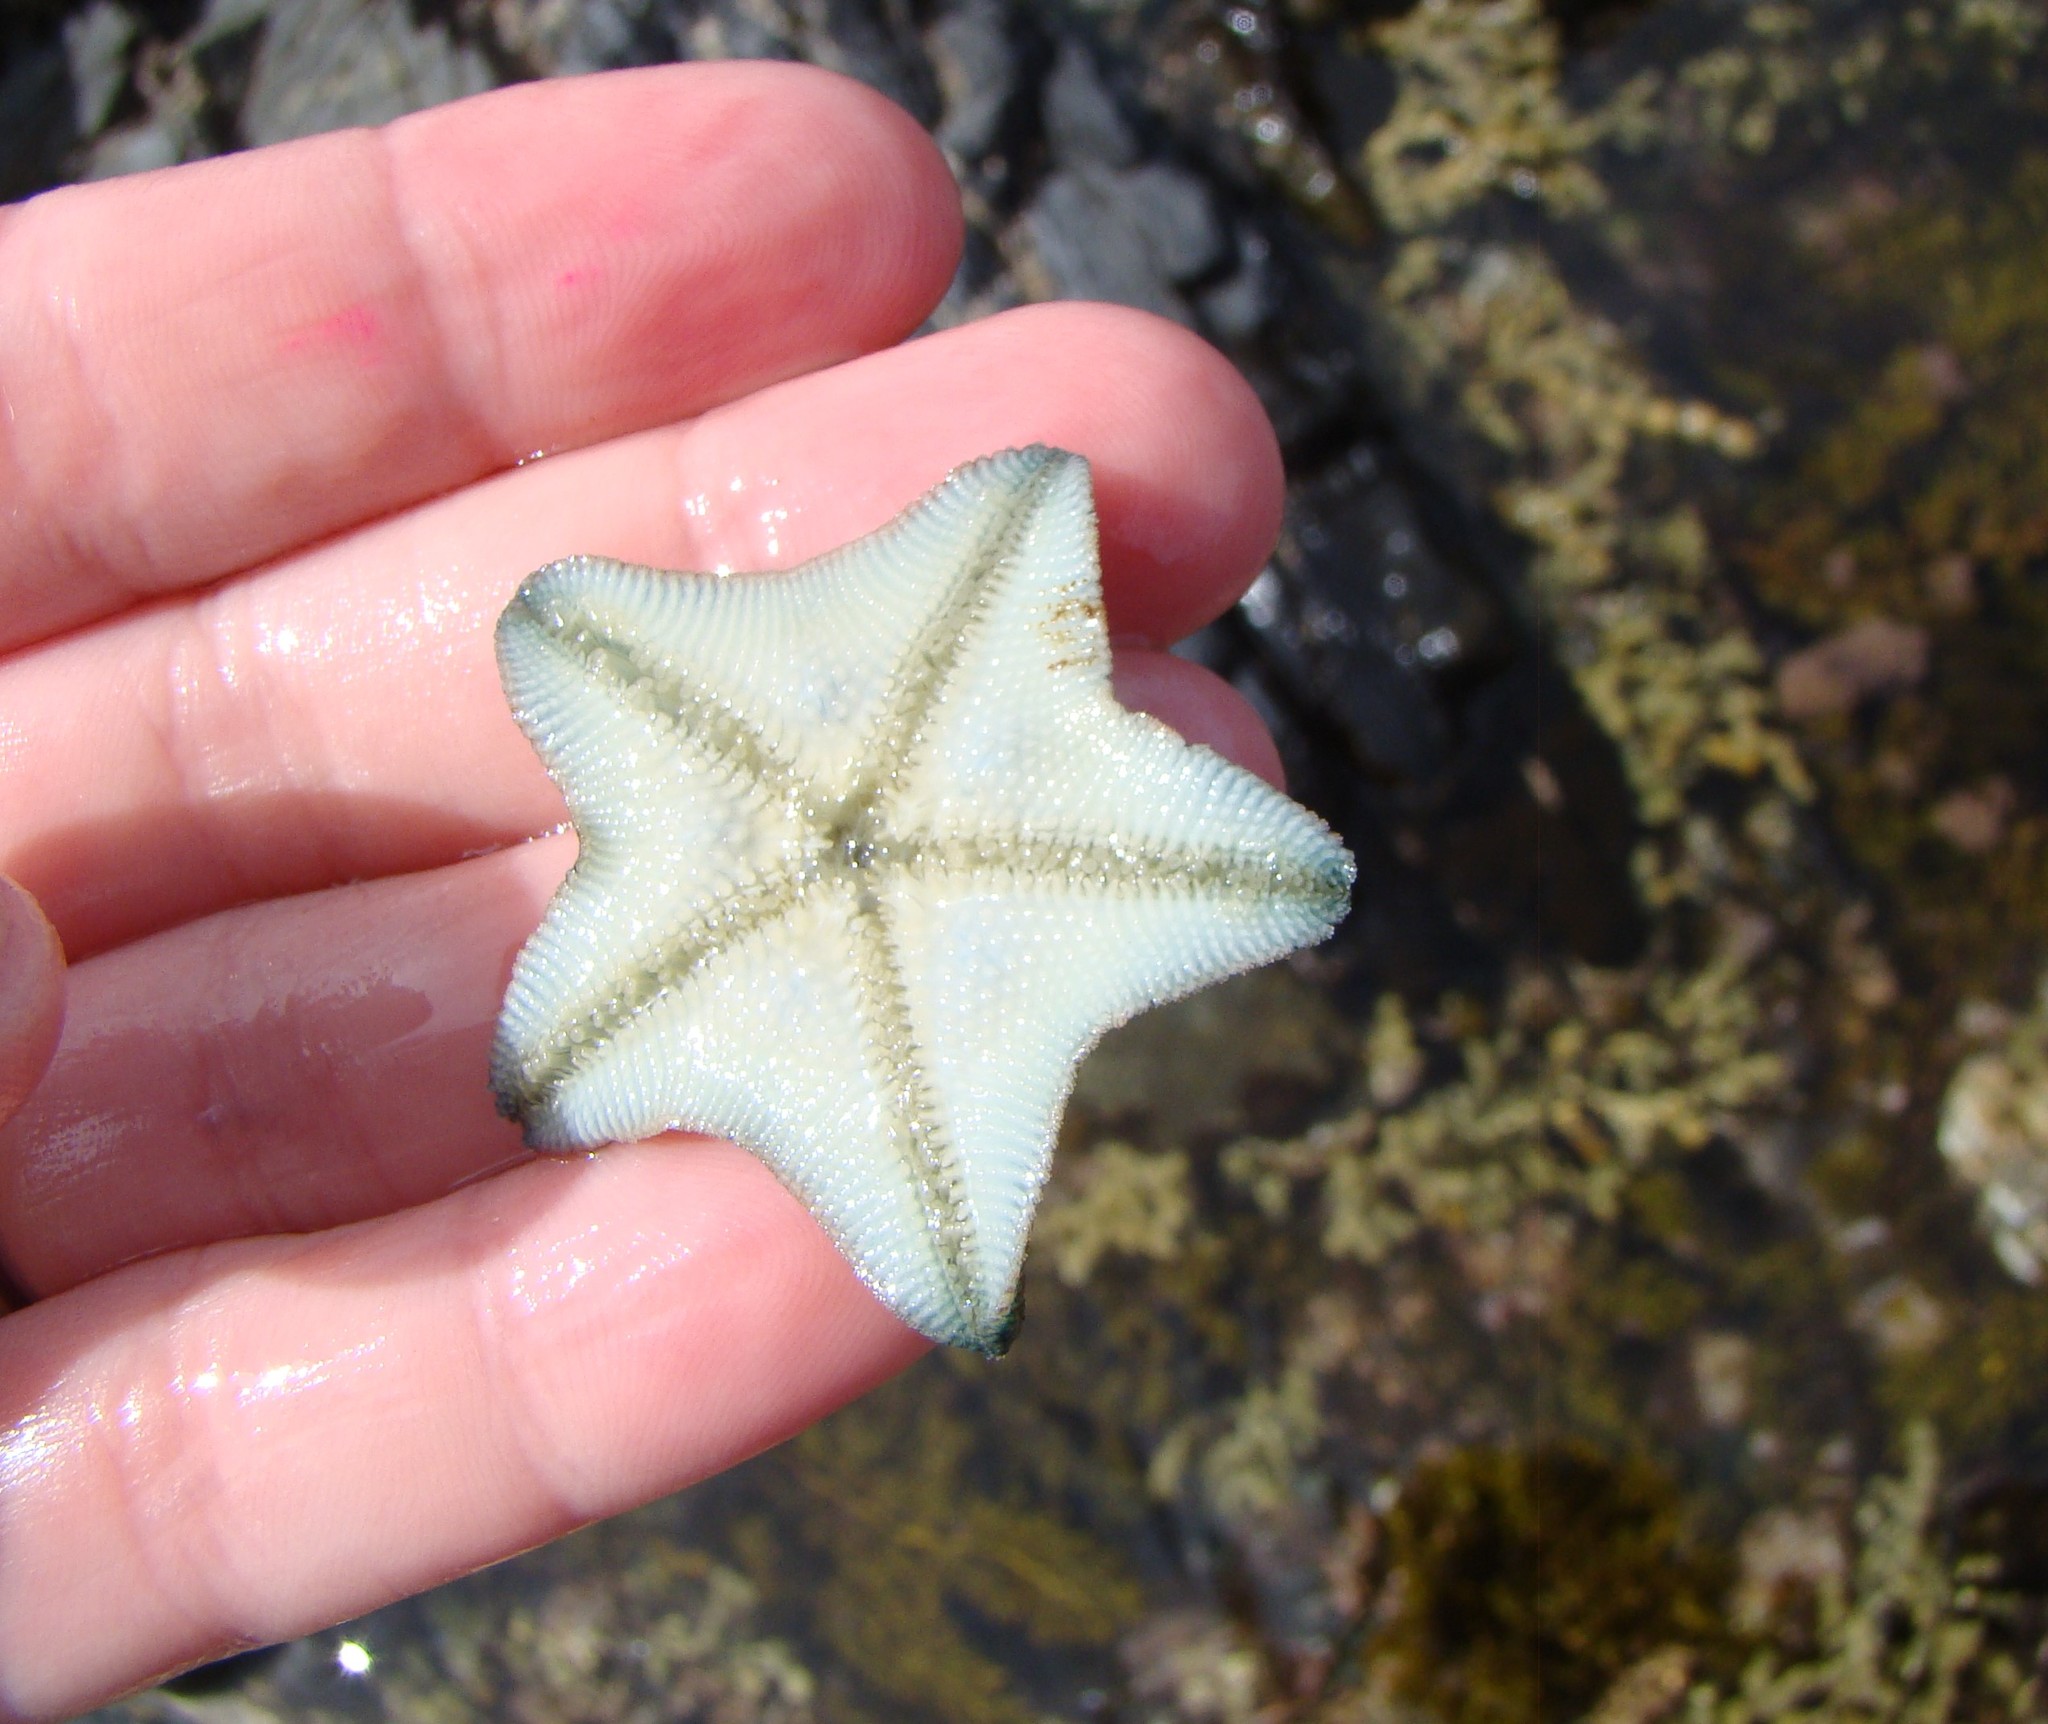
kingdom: Animalia
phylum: Echinodermata
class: Asteroidea
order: Valvatida
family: Asterinidae
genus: Patiriella
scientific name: Patiriella regularis
